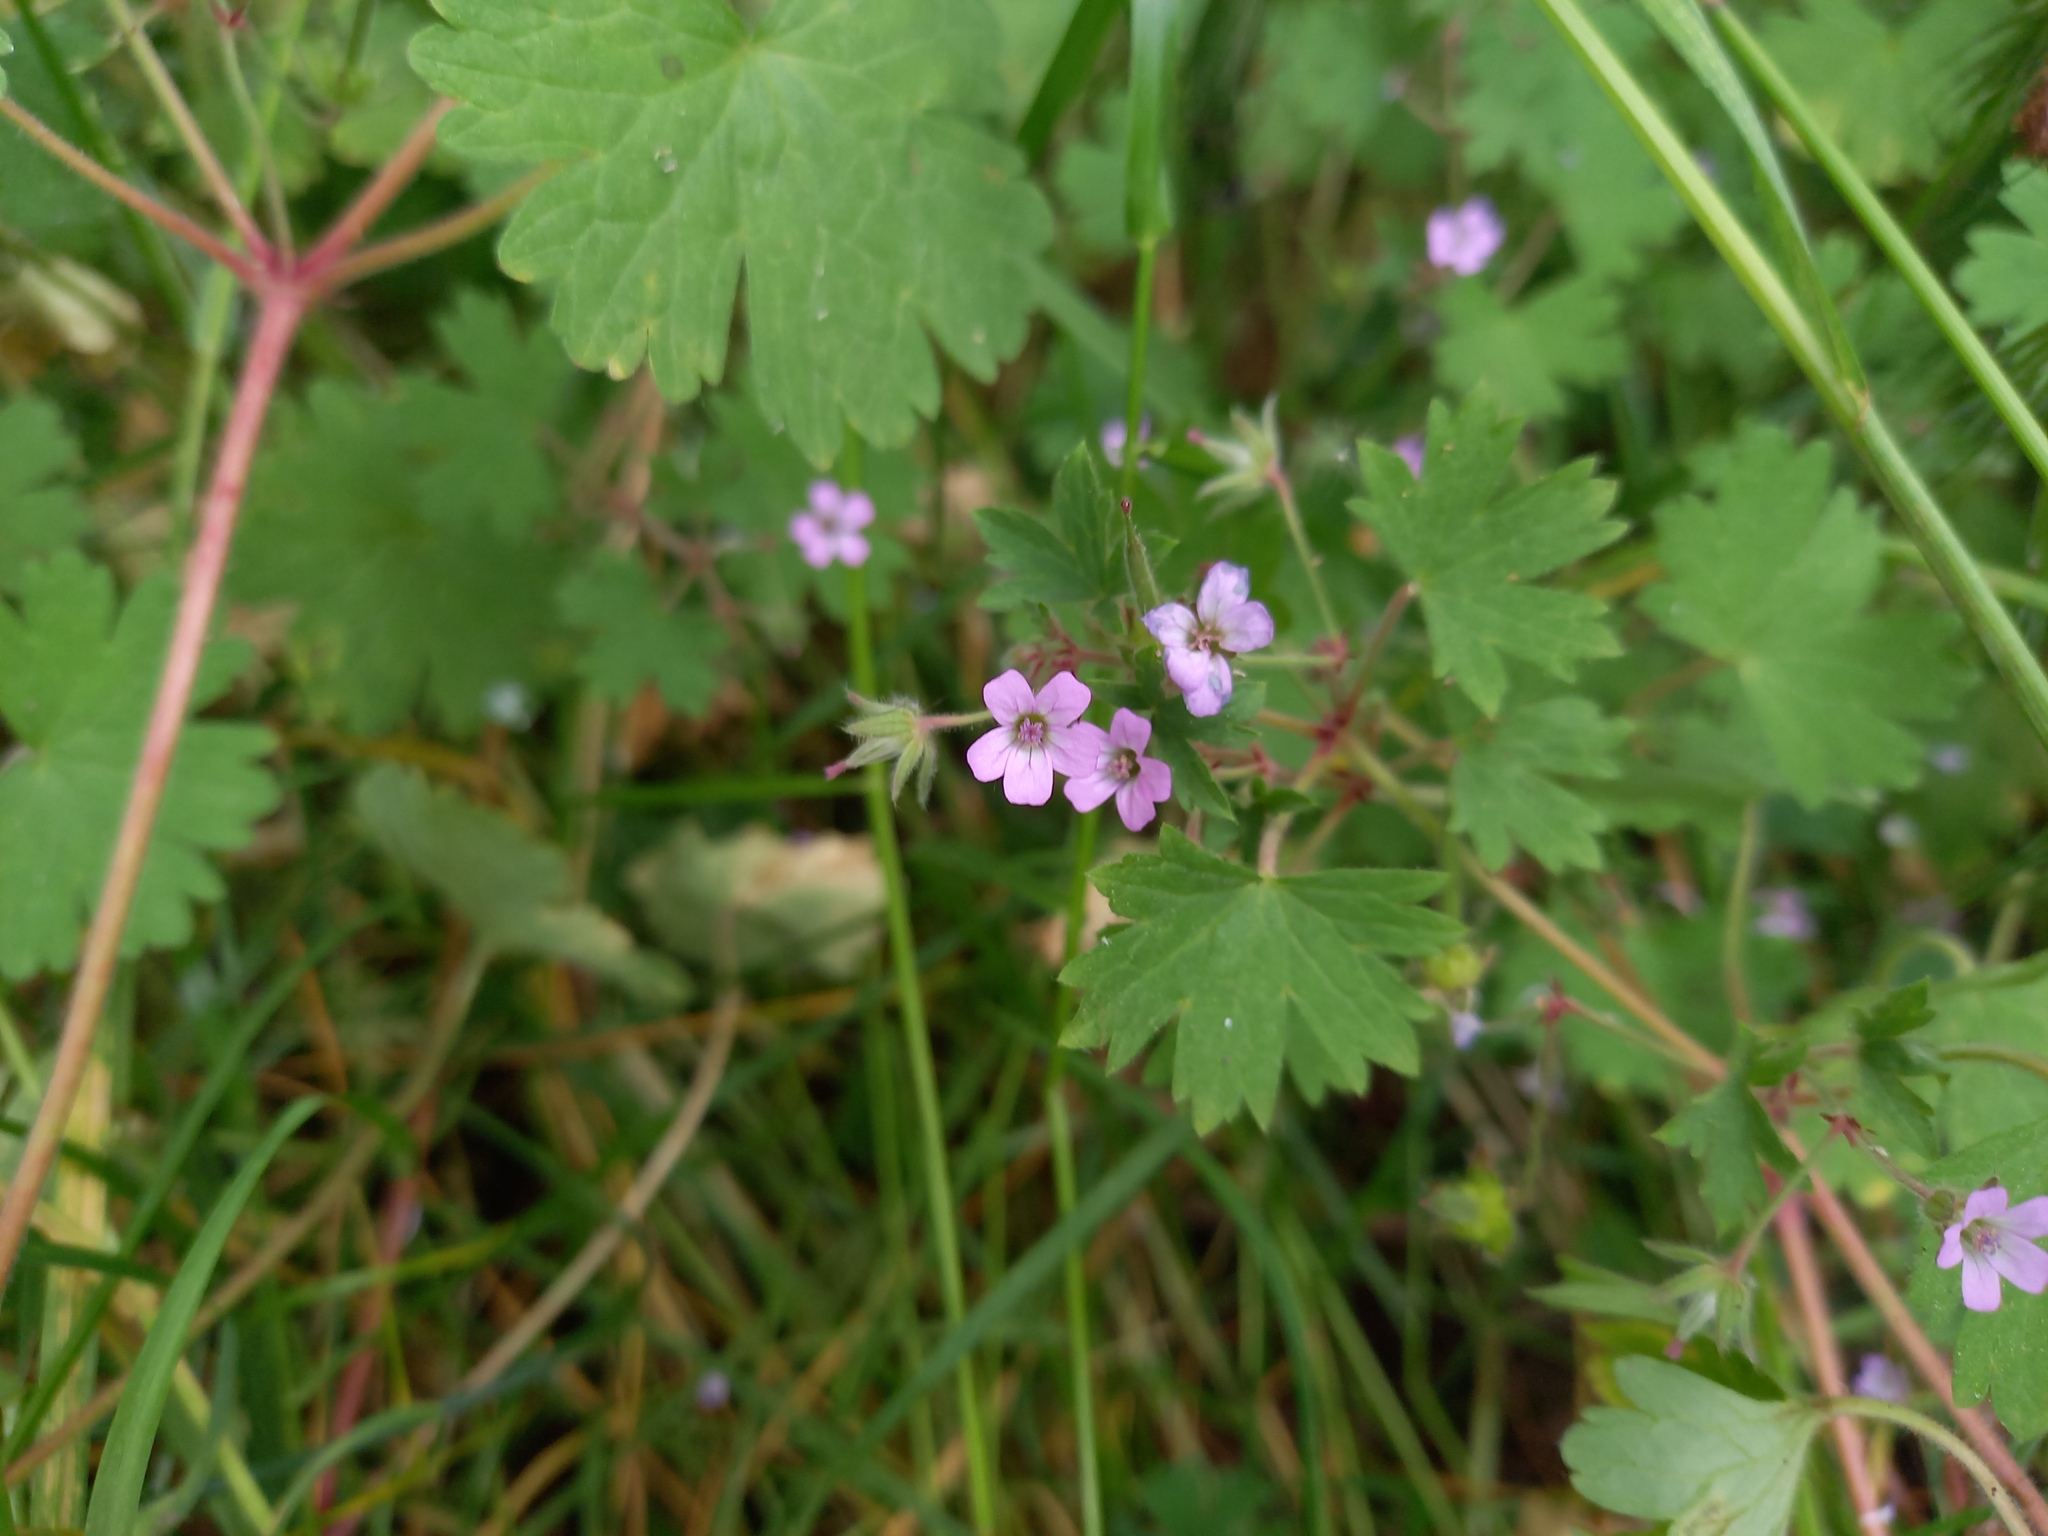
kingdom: Plantae
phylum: Tracheophyta
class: Magnoliopsida
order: Geraniales
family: Geraniaceae
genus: Geranium
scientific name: Geranium rotundifolium
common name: Round-leaved crane's-bill
